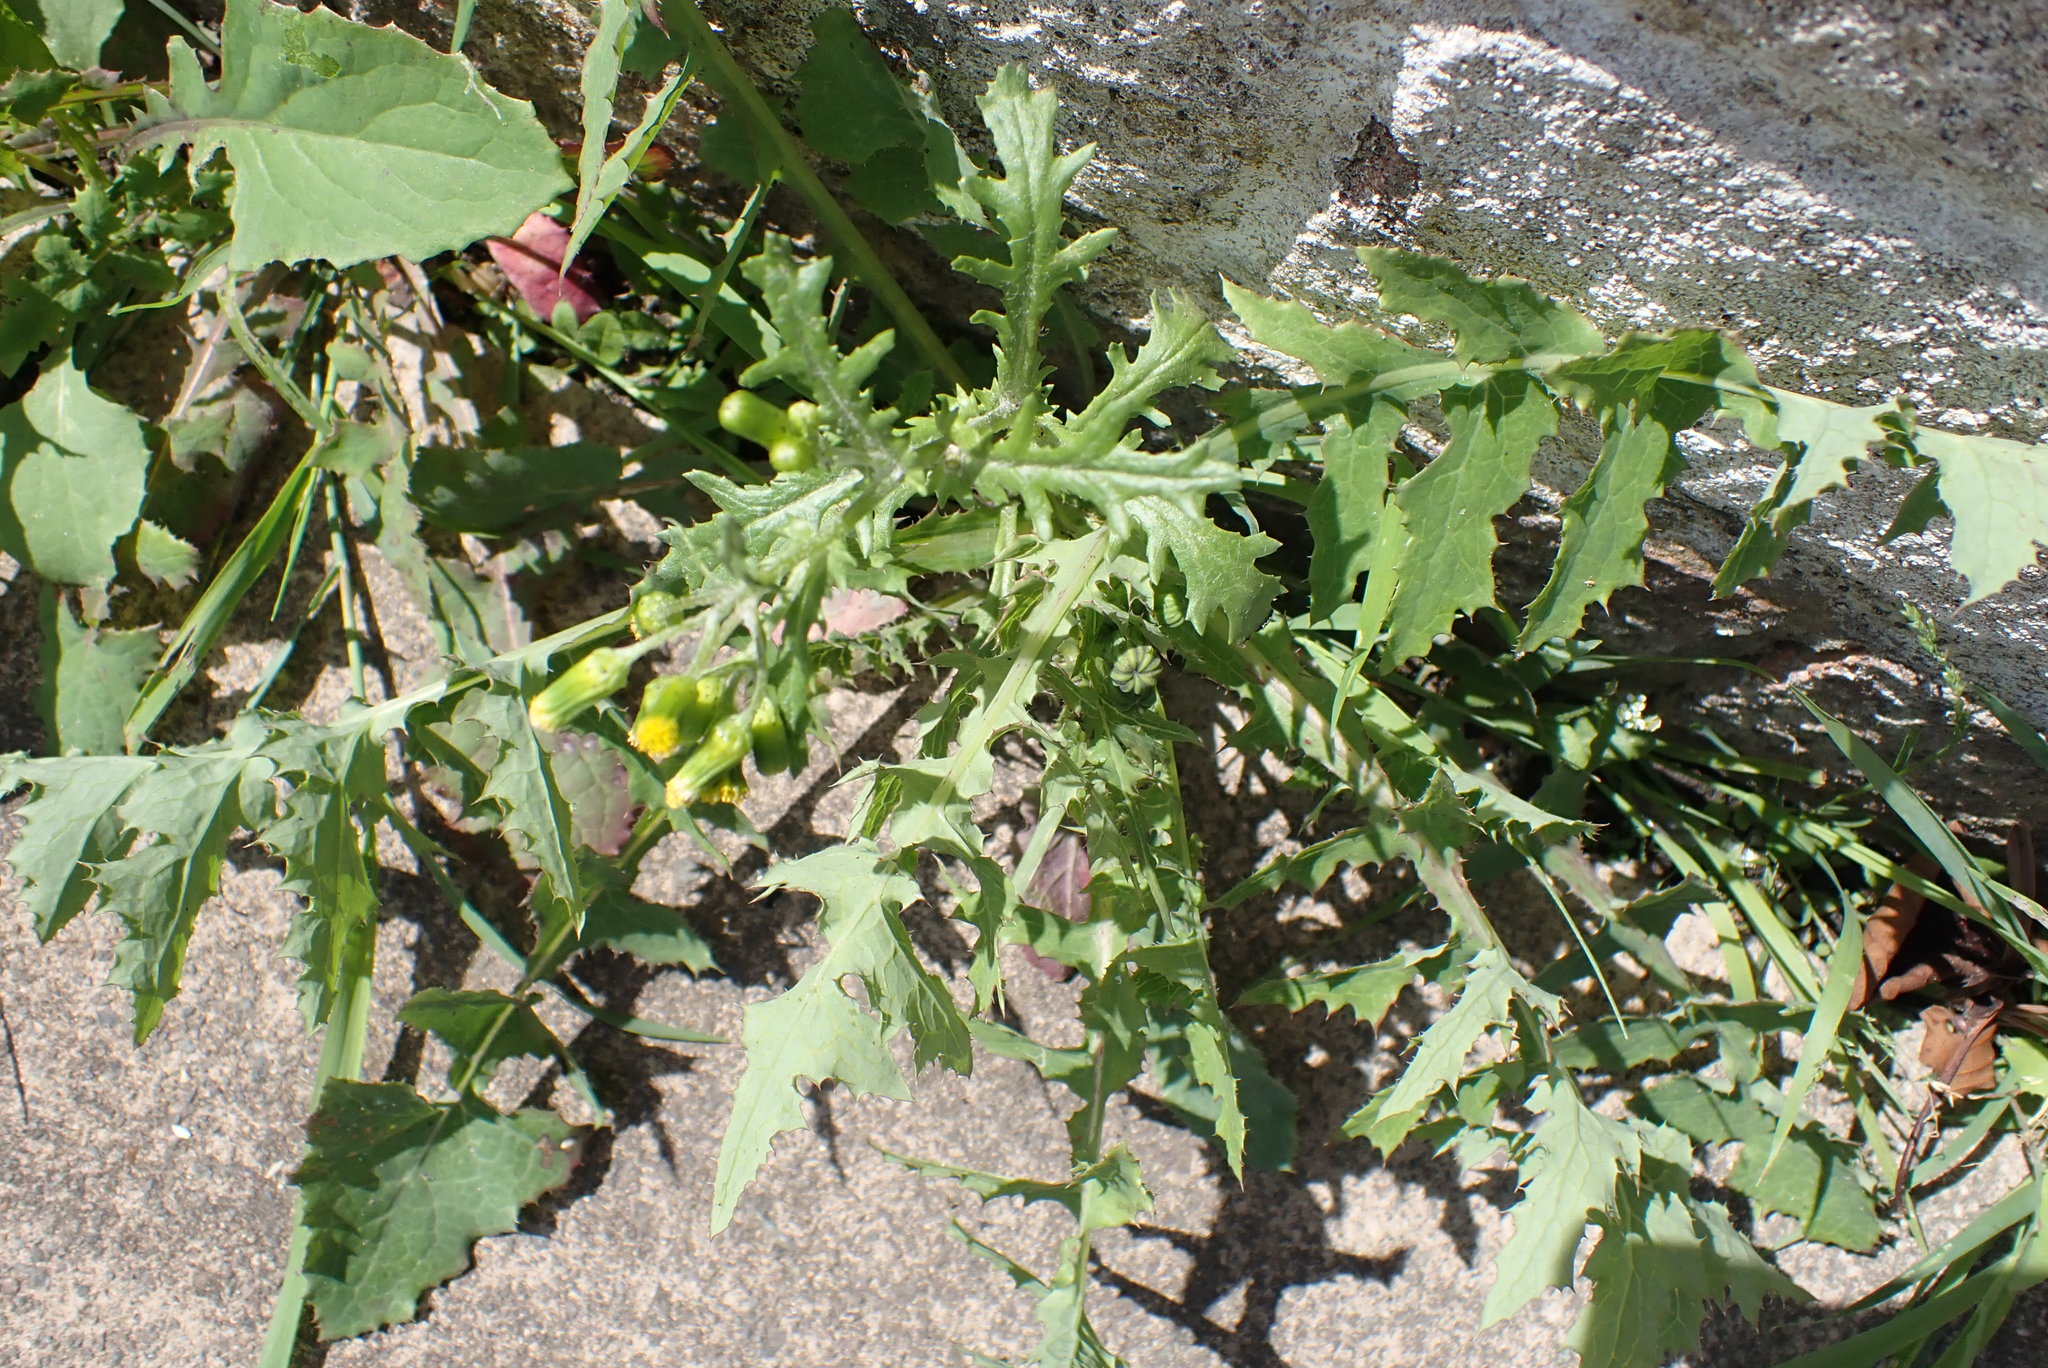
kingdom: Plantae
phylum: Tracheophyta
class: Magnoliopsida
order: Asterales
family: Asteraceae
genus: Senecio
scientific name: Senecio vulgaris
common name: Old-man-in-the-spring
